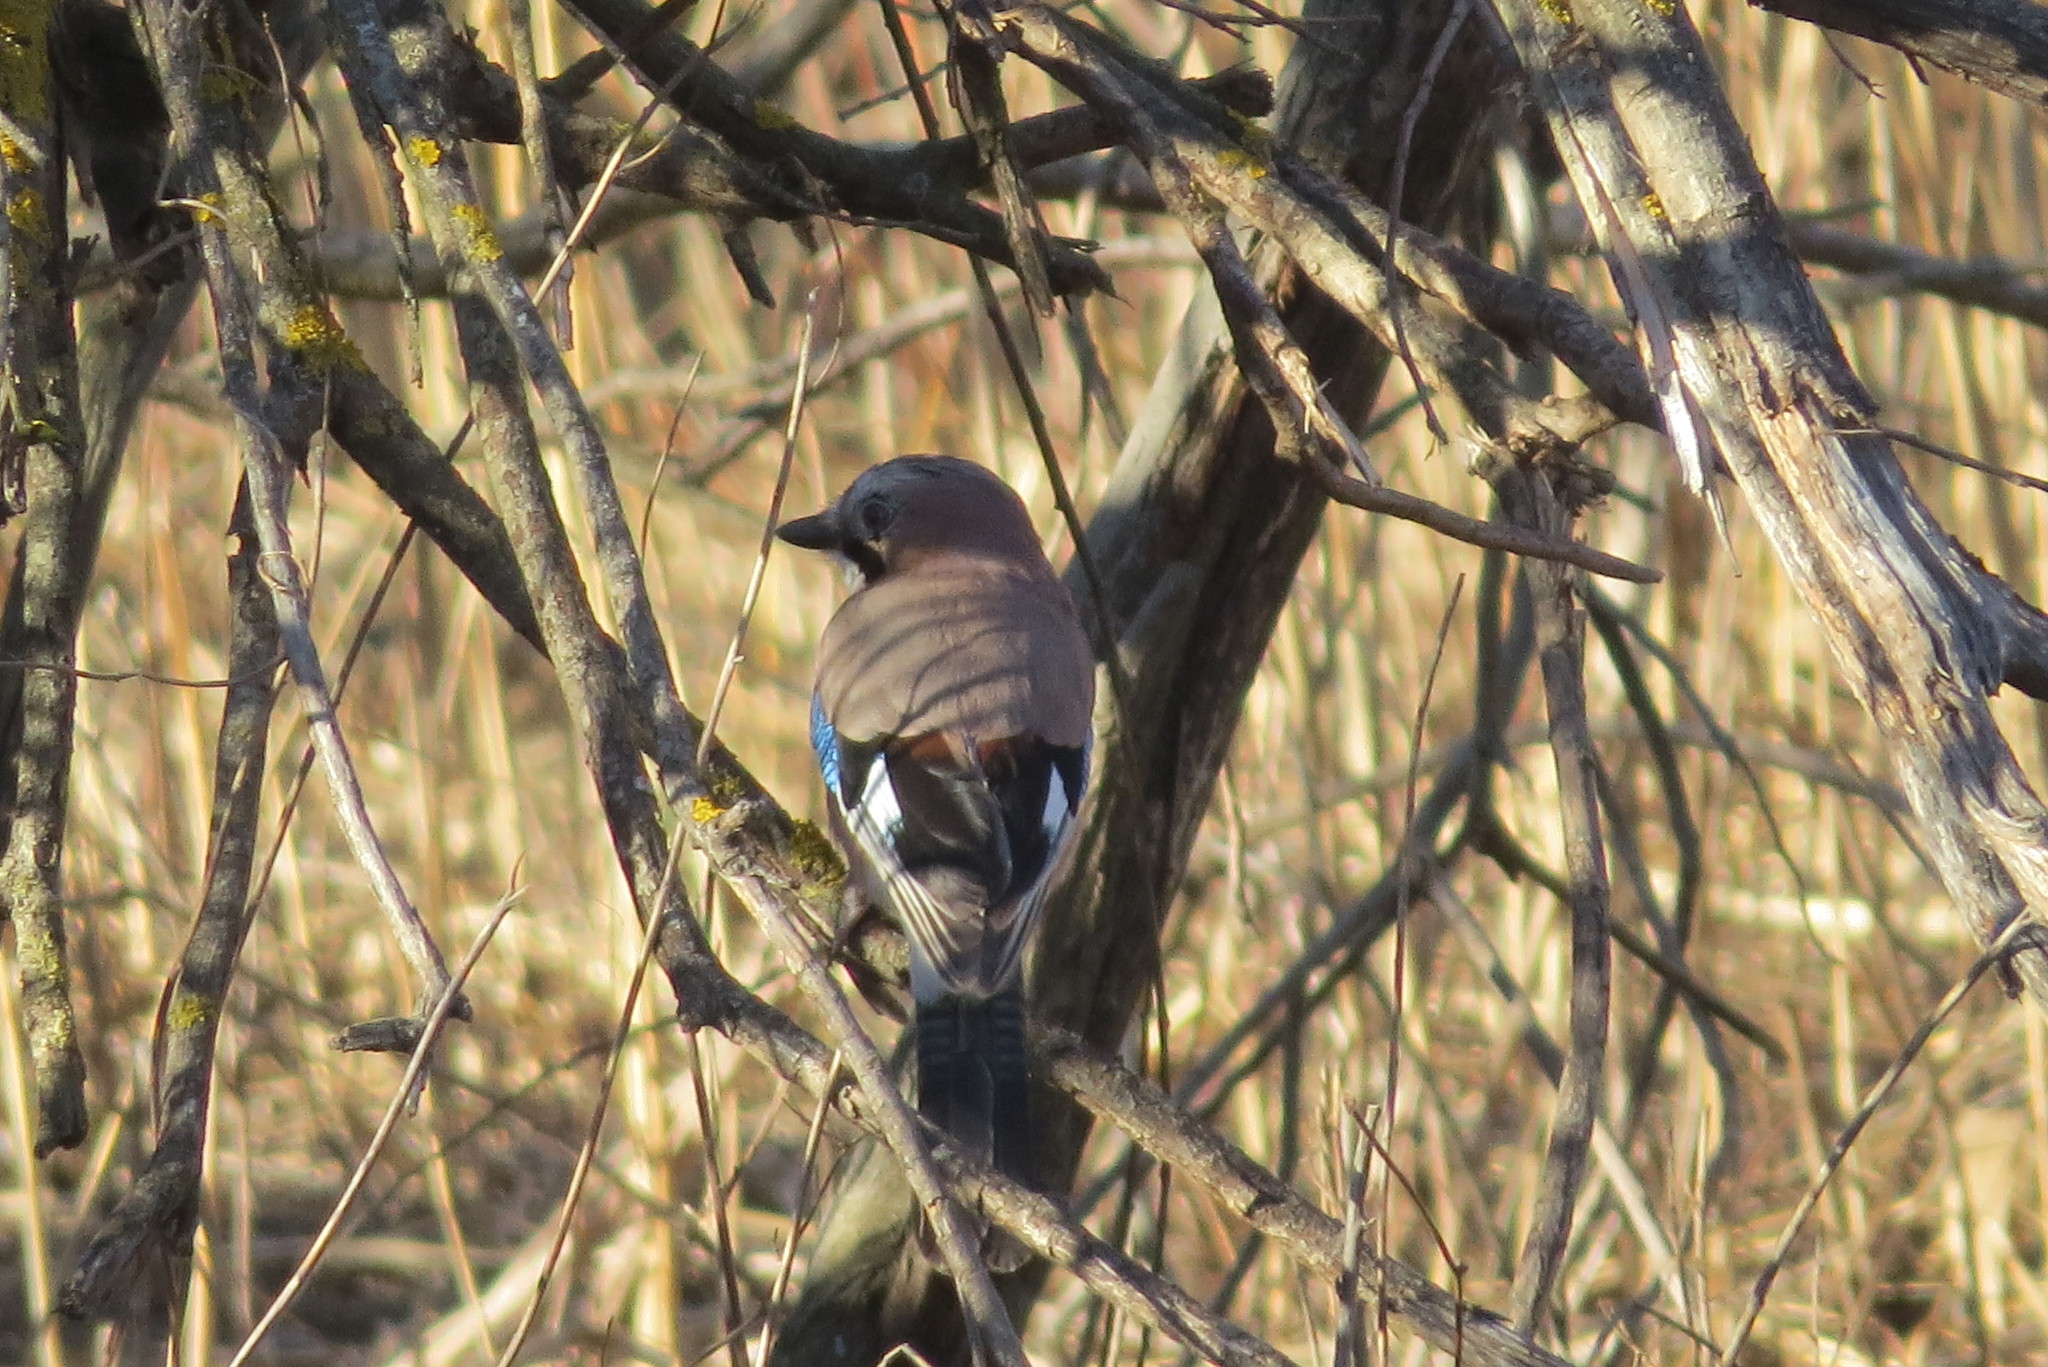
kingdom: Animalia
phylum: Chordata
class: Aves
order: Passeriformes
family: Corvidae
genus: Garrulus
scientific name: Garrulus glandarius
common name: Eurasian jay
